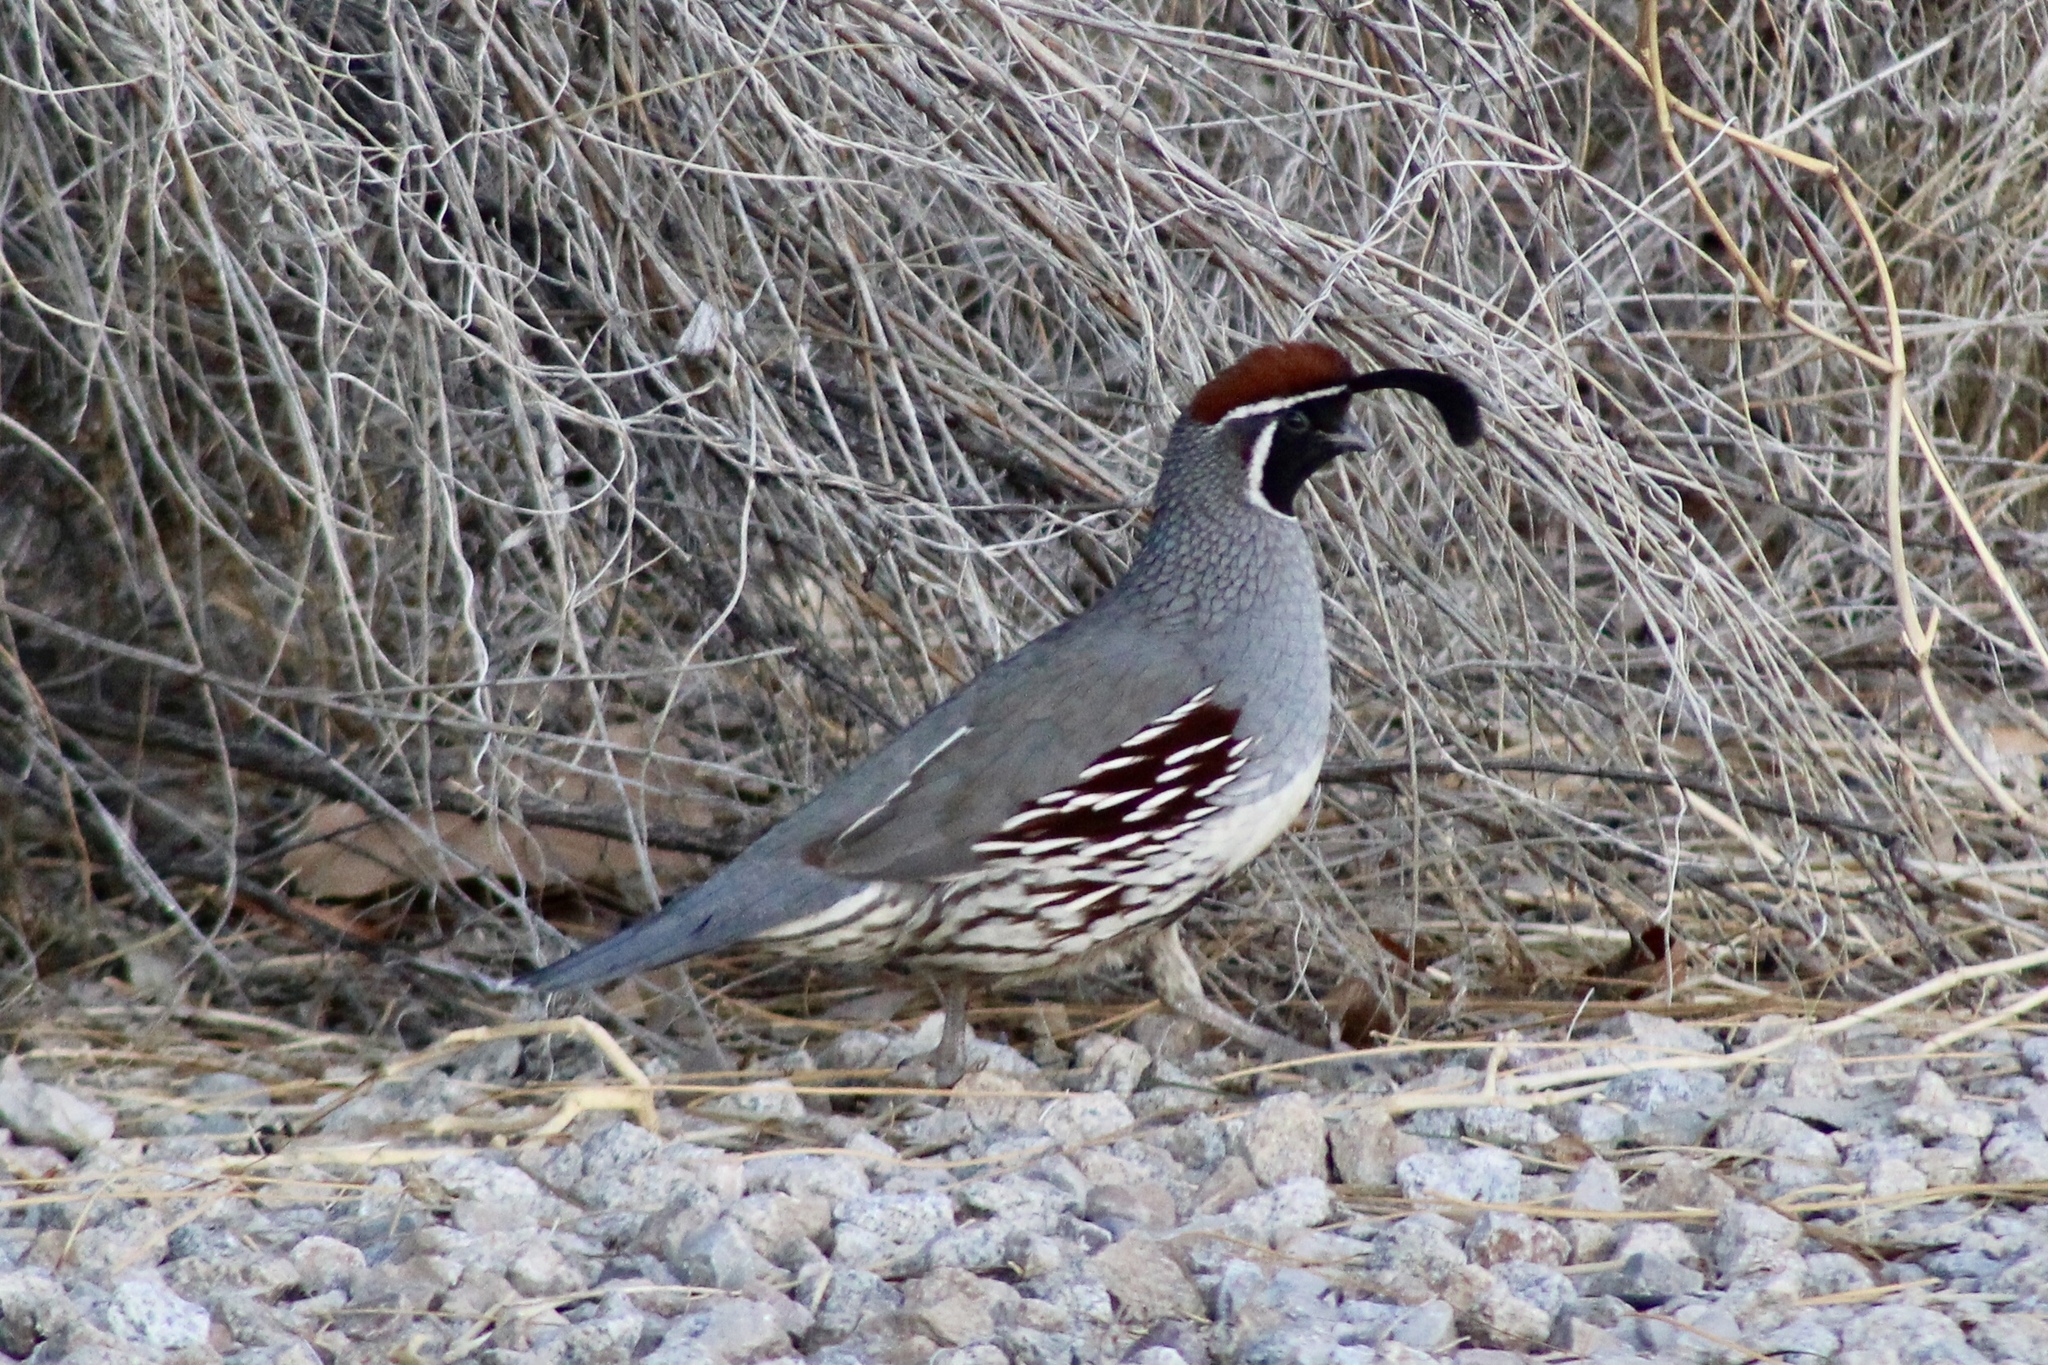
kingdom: Animalia
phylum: Chordata
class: Aves
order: Galliformes
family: Odontophoridae
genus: Callipepla
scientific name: Callipepla gambelii
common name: Gambel's quail
